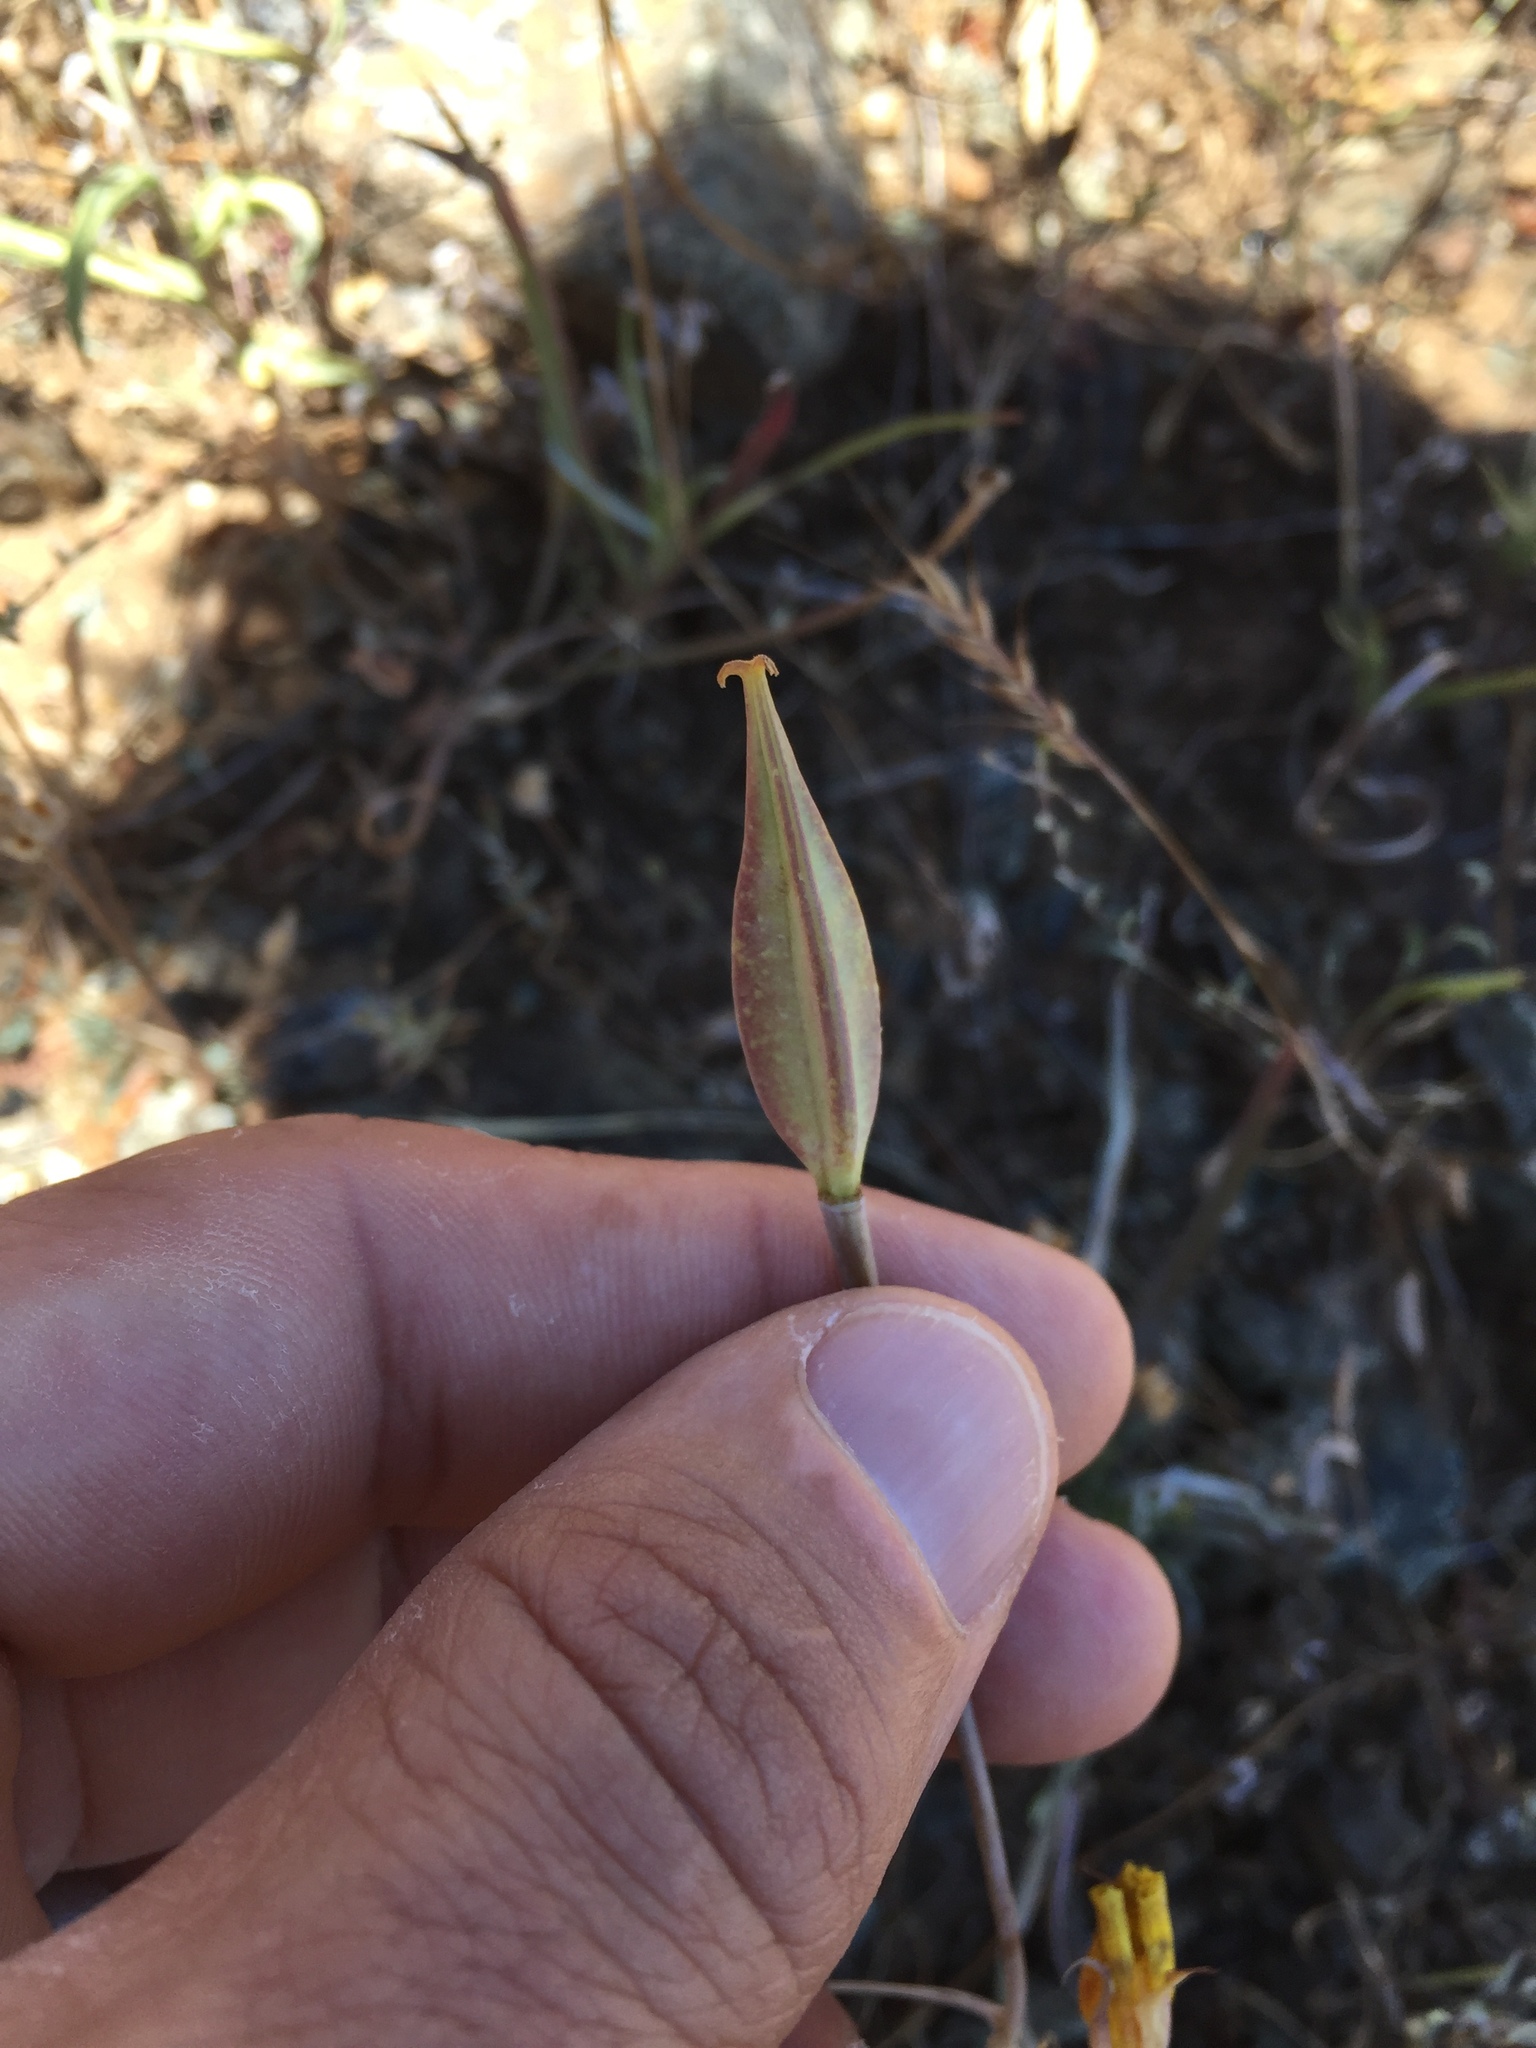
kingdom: Plantae
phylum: Tracheophyta
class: Liliopsida
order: Liliales
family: Liliaceae
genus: Calochortus
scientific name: Calochortus luteus
